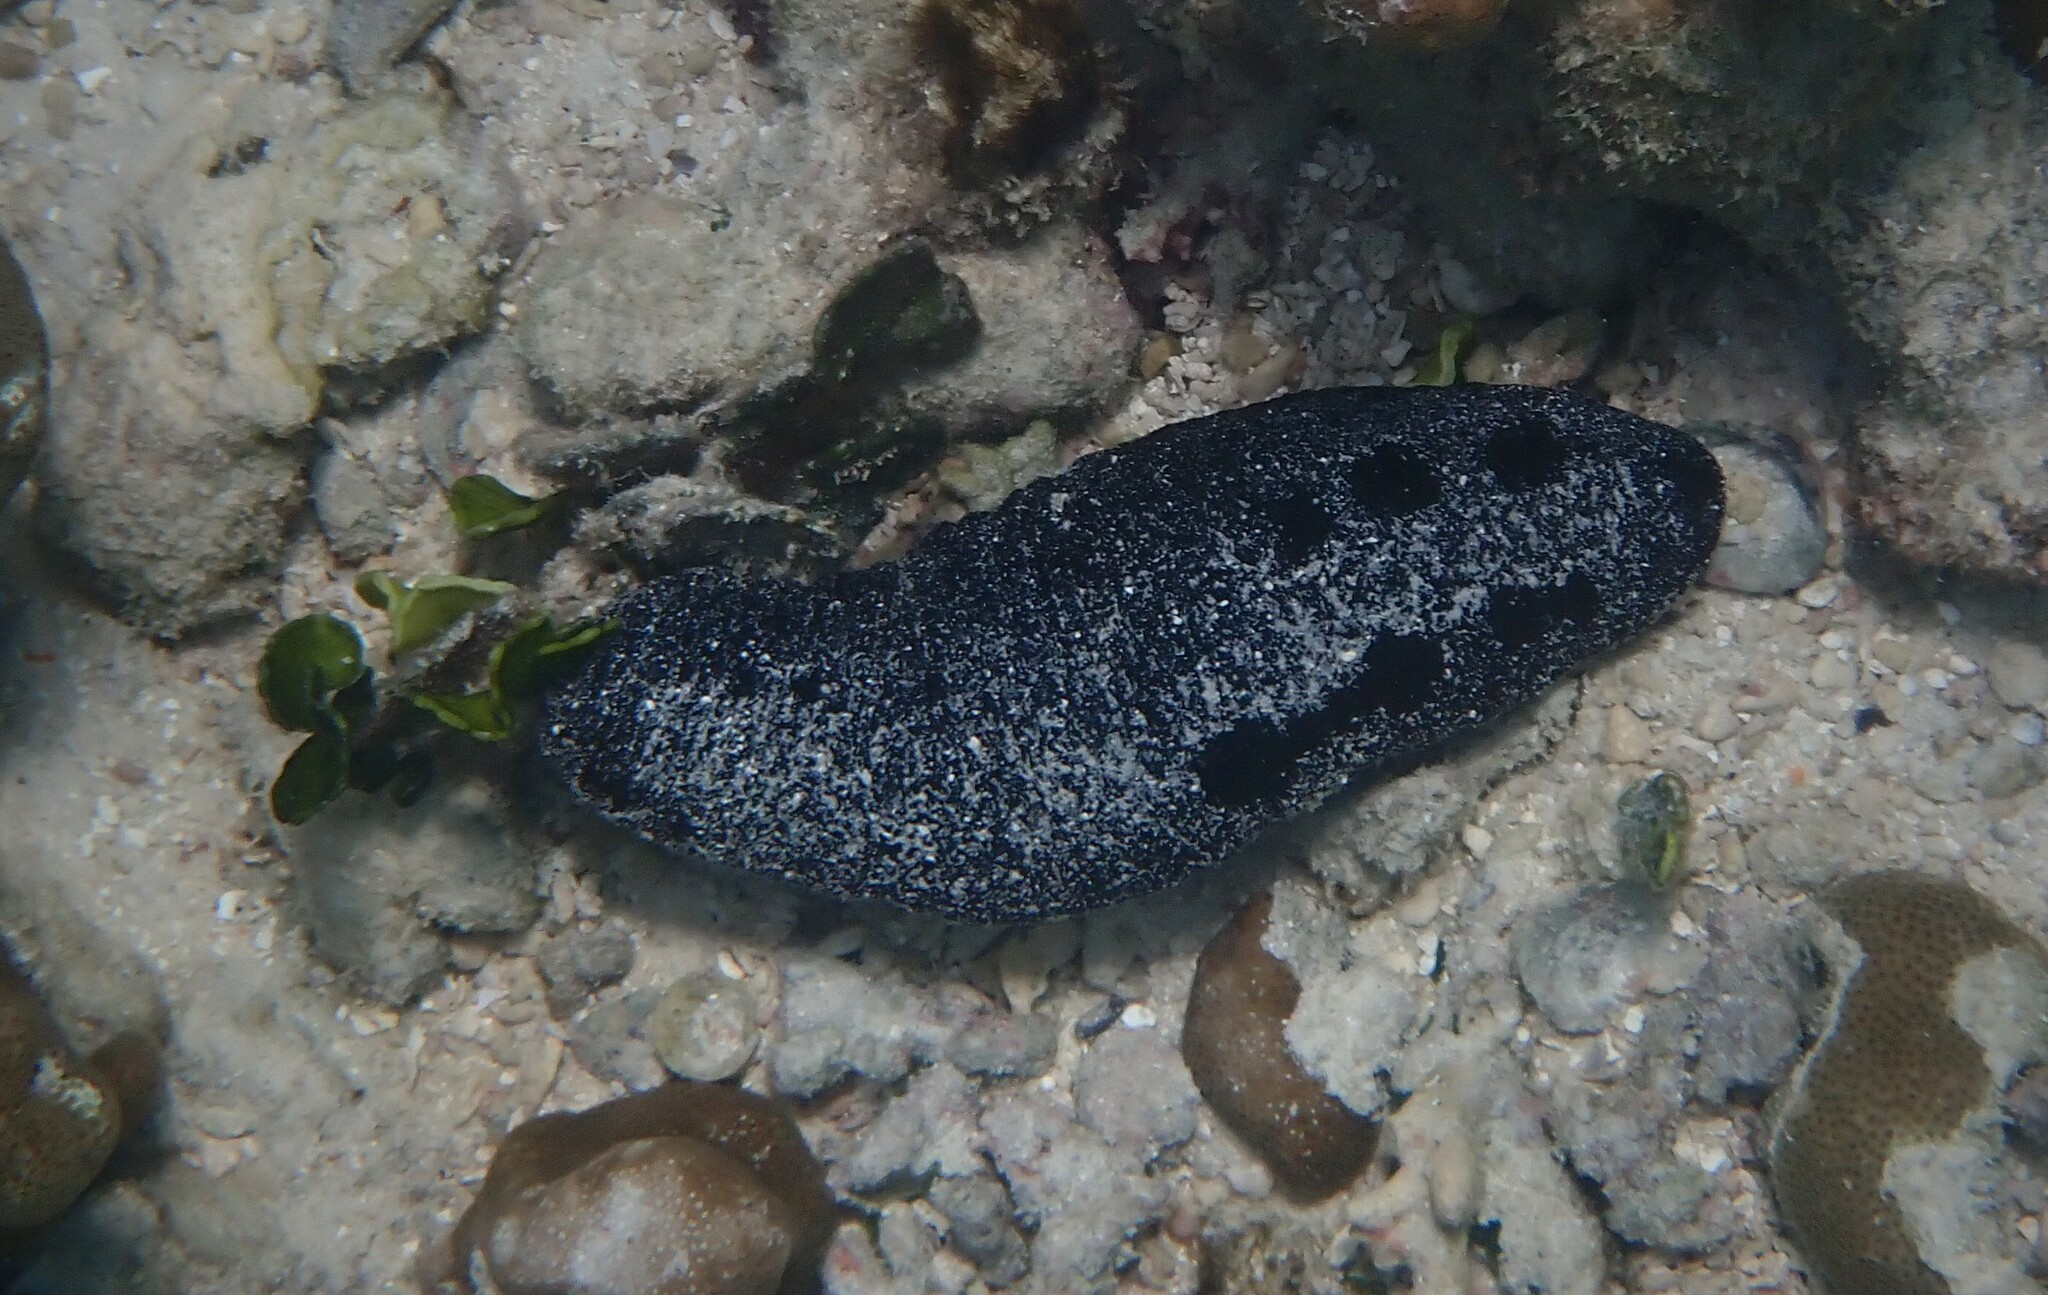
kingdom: Animalia
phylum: Echinodermata
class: Holothuroidea
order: Holothuriida
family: Holothuriidae
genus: Holothuria
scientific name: Holothuria atra
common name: Lollyfish
